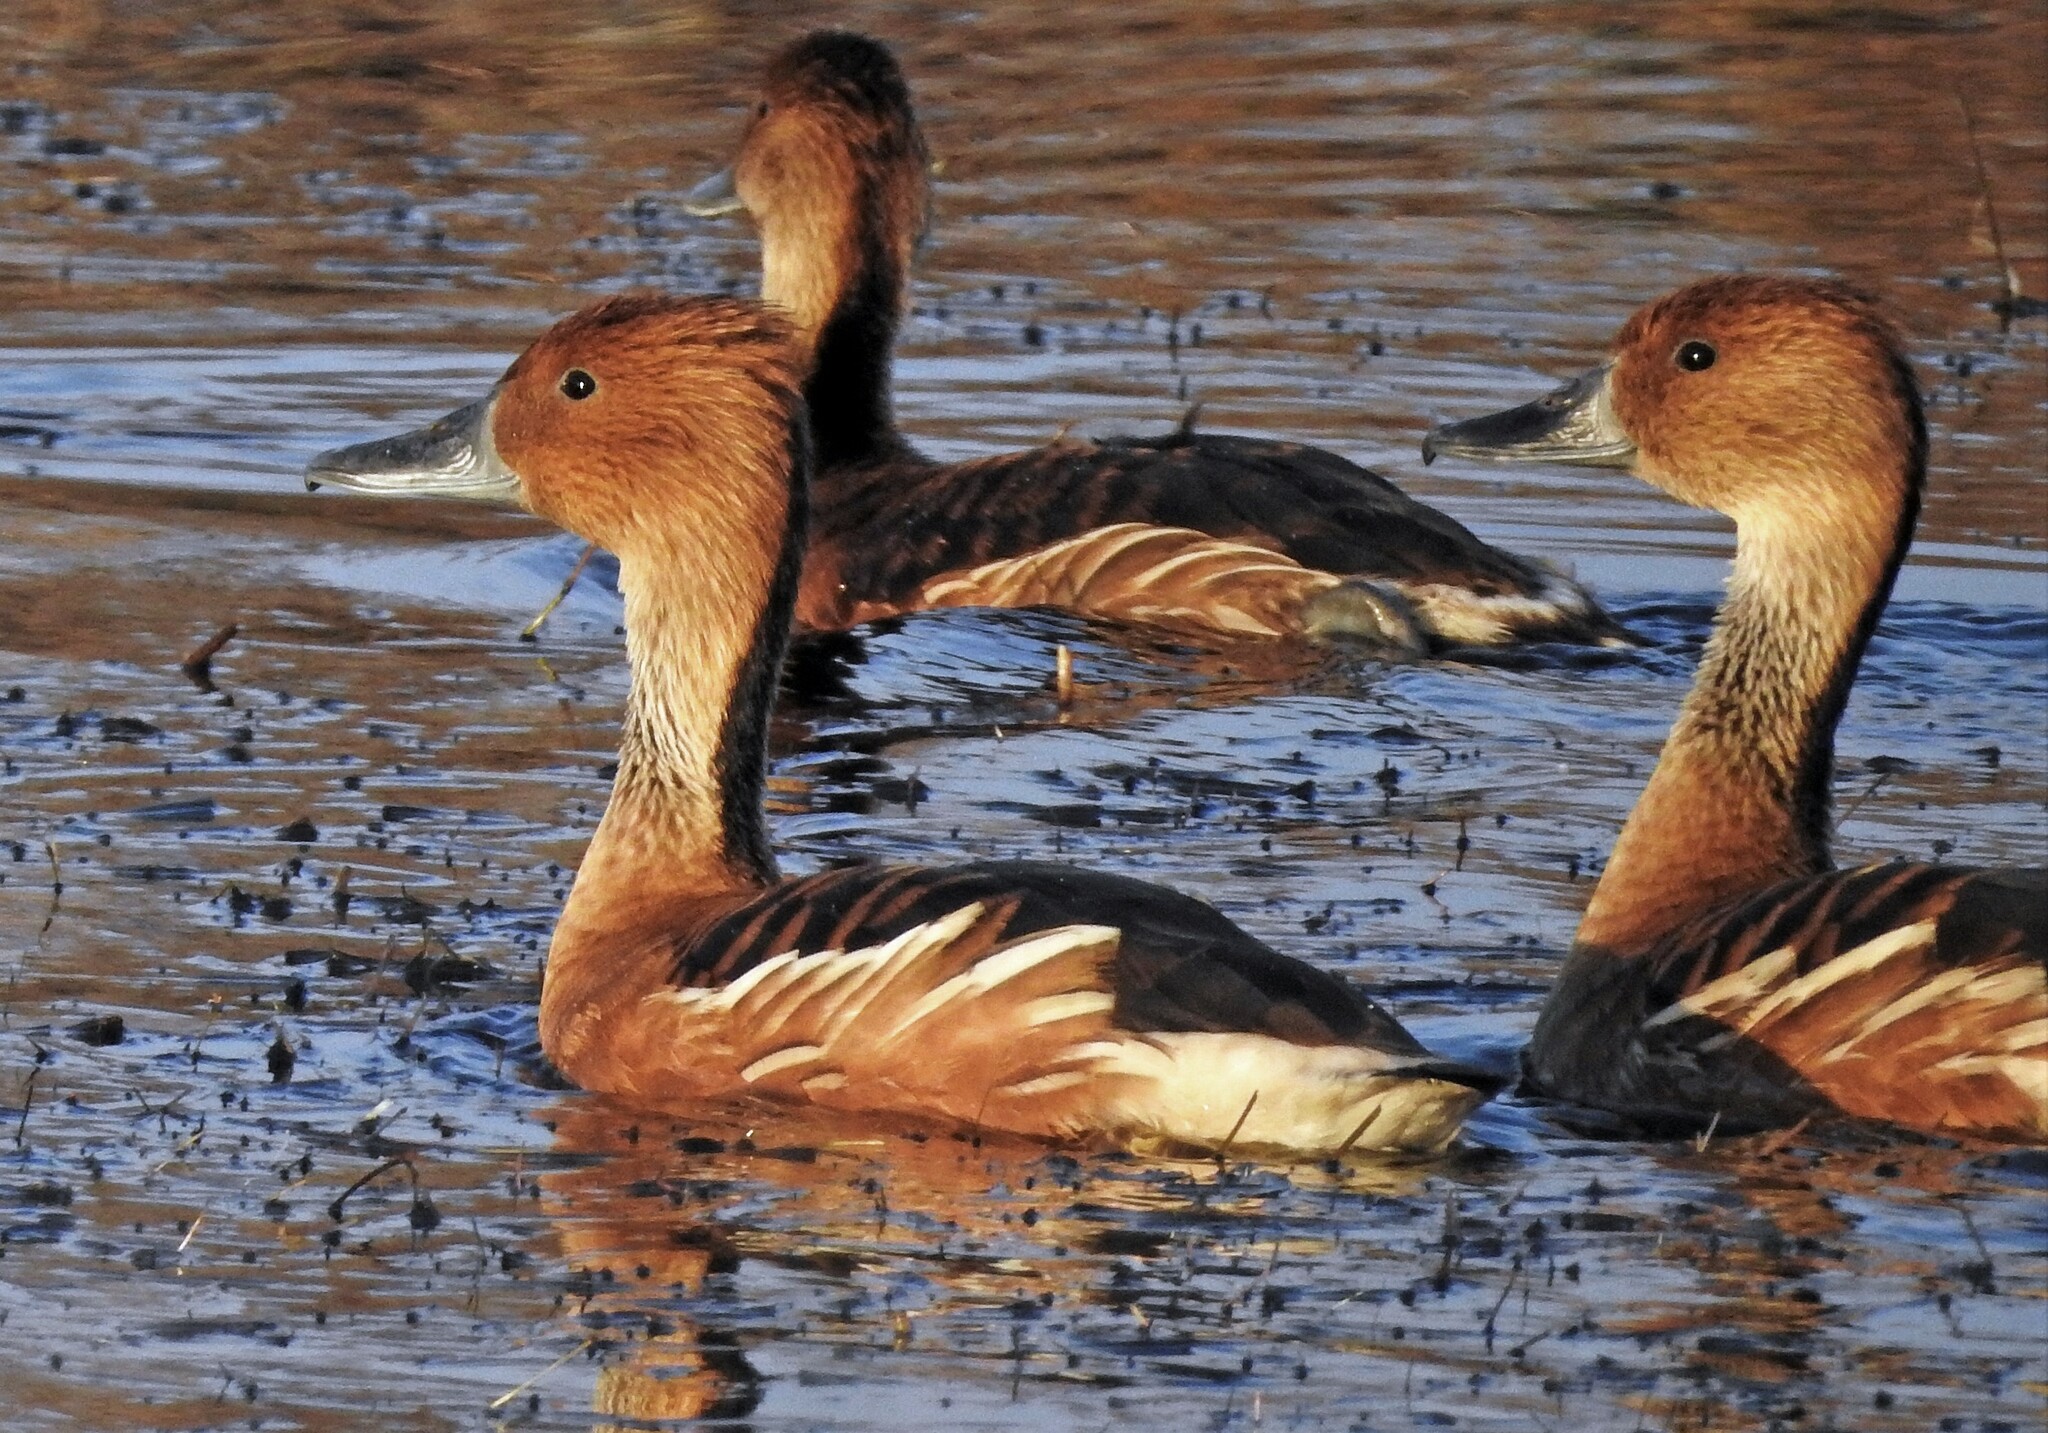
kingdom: Animalia
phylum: Chordata
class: Aves
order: Anseriformes
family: Anatidae
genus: Dendrocygna
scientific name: Dendrocygna bicolor
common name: Fulvous whistling duck
